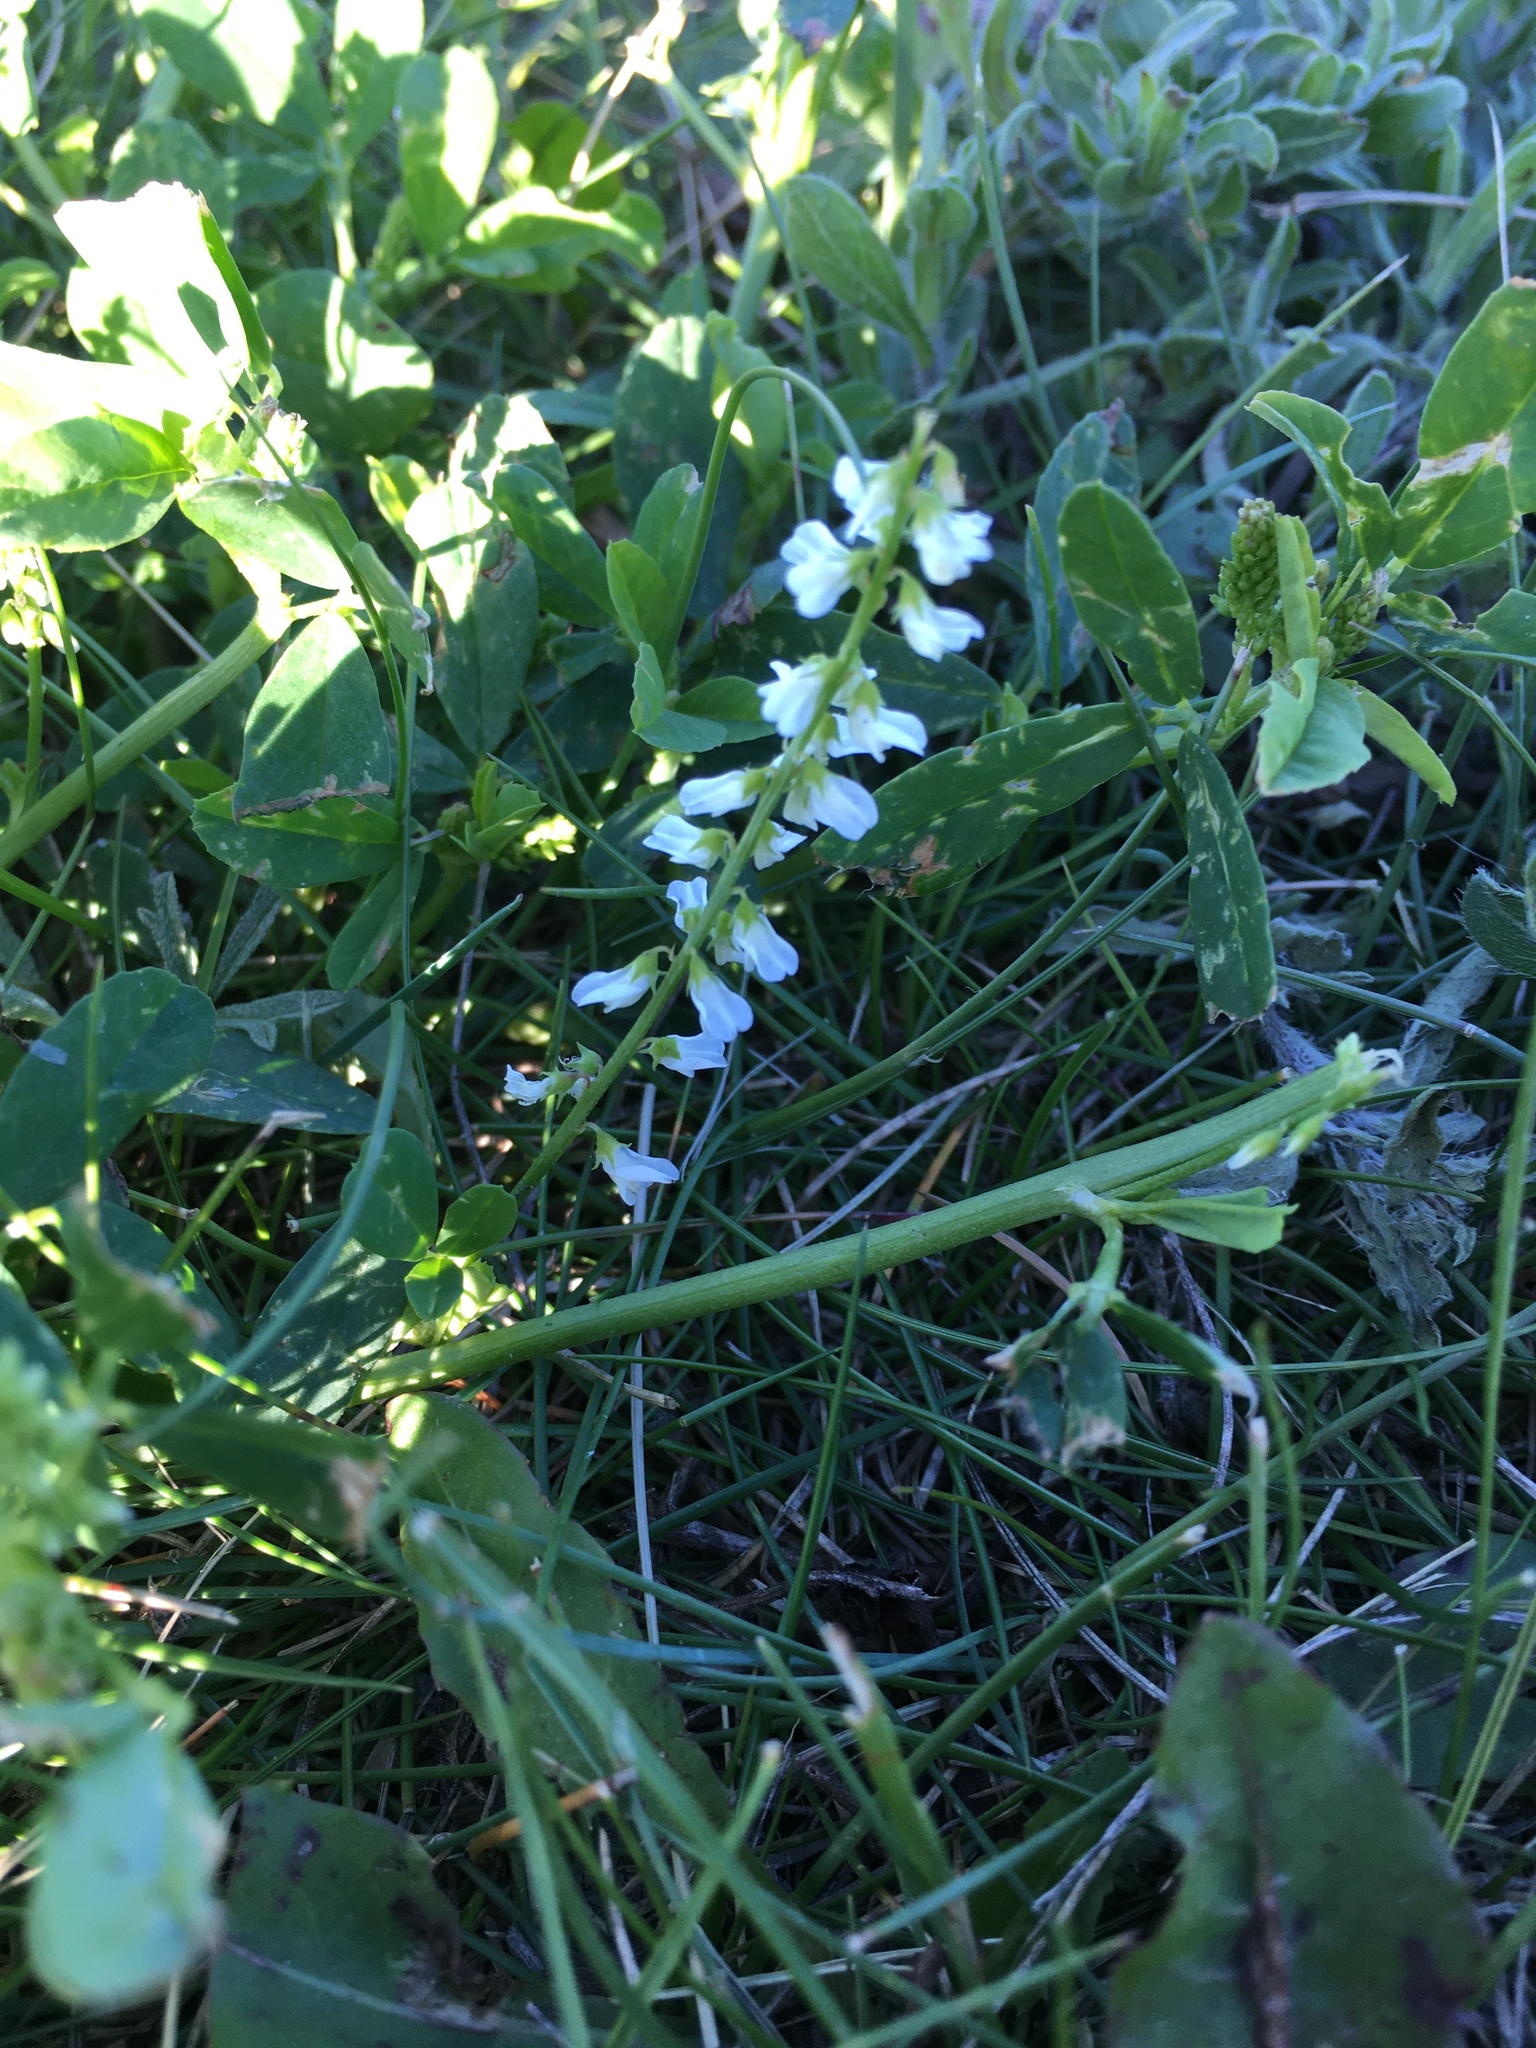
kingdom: Plantae
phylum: Tracheophyta
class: Magnoliopsida
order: Fabales
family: Fabaceae
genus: Melilotus
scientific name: Melilotus albus
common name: White melilot
